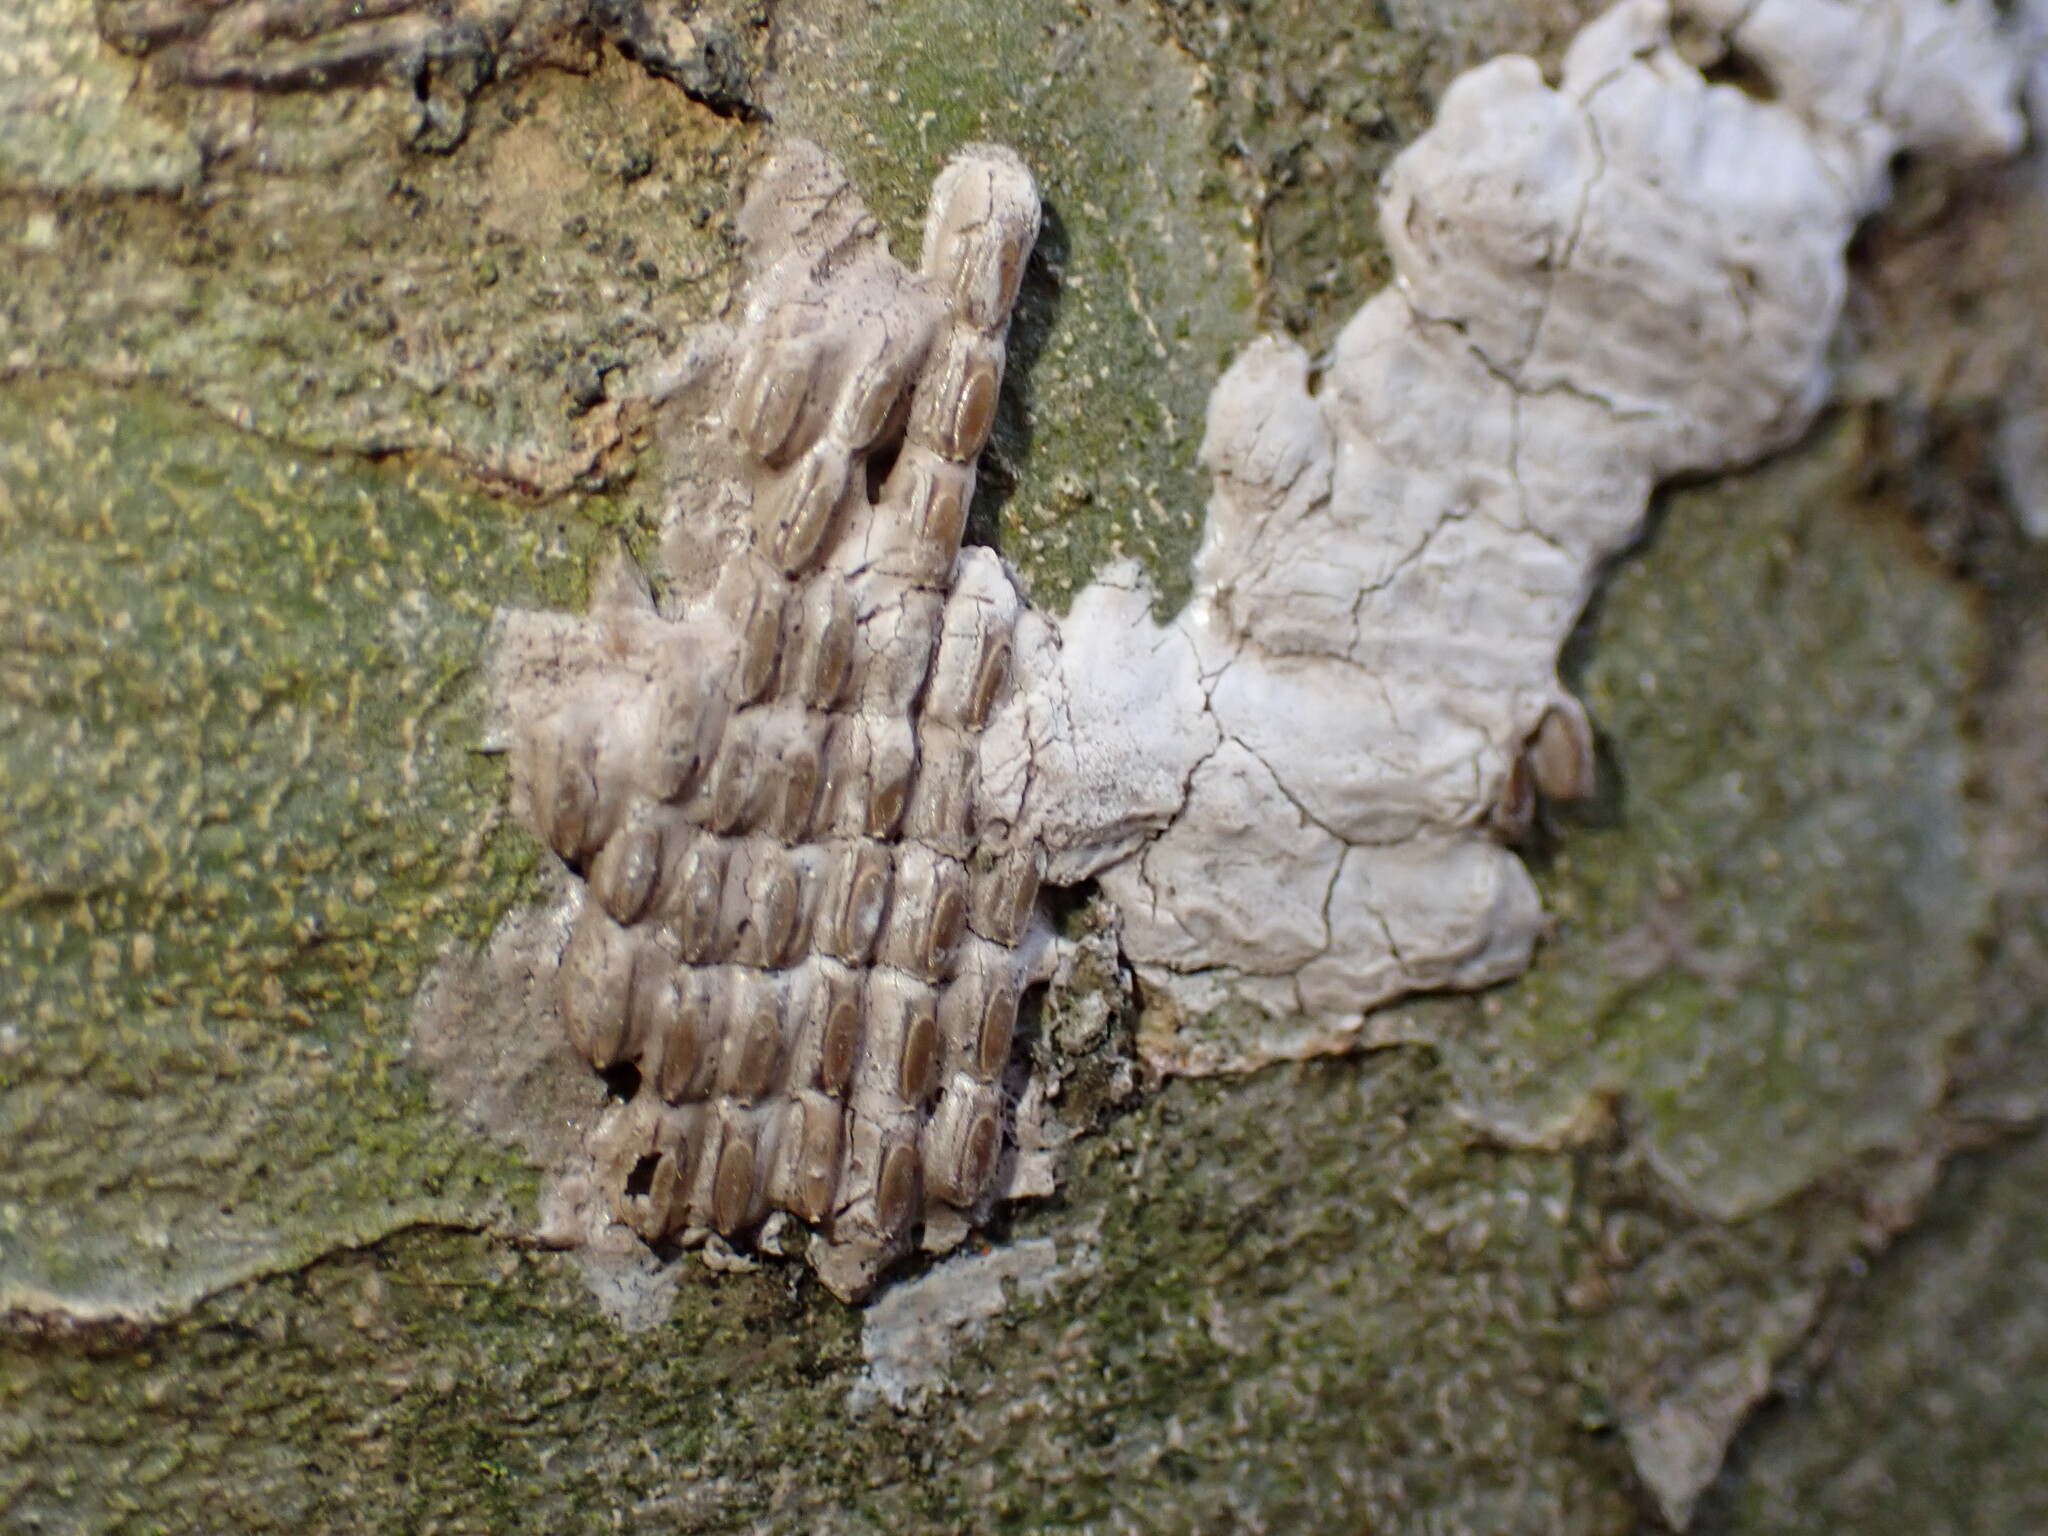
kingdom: Animalia
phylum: Arthropoda
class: Insecta
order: Hemiptera
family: Fulgoridae
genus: Lycorma
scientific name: Lycorma delicatula
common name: Spotted lanternfly
